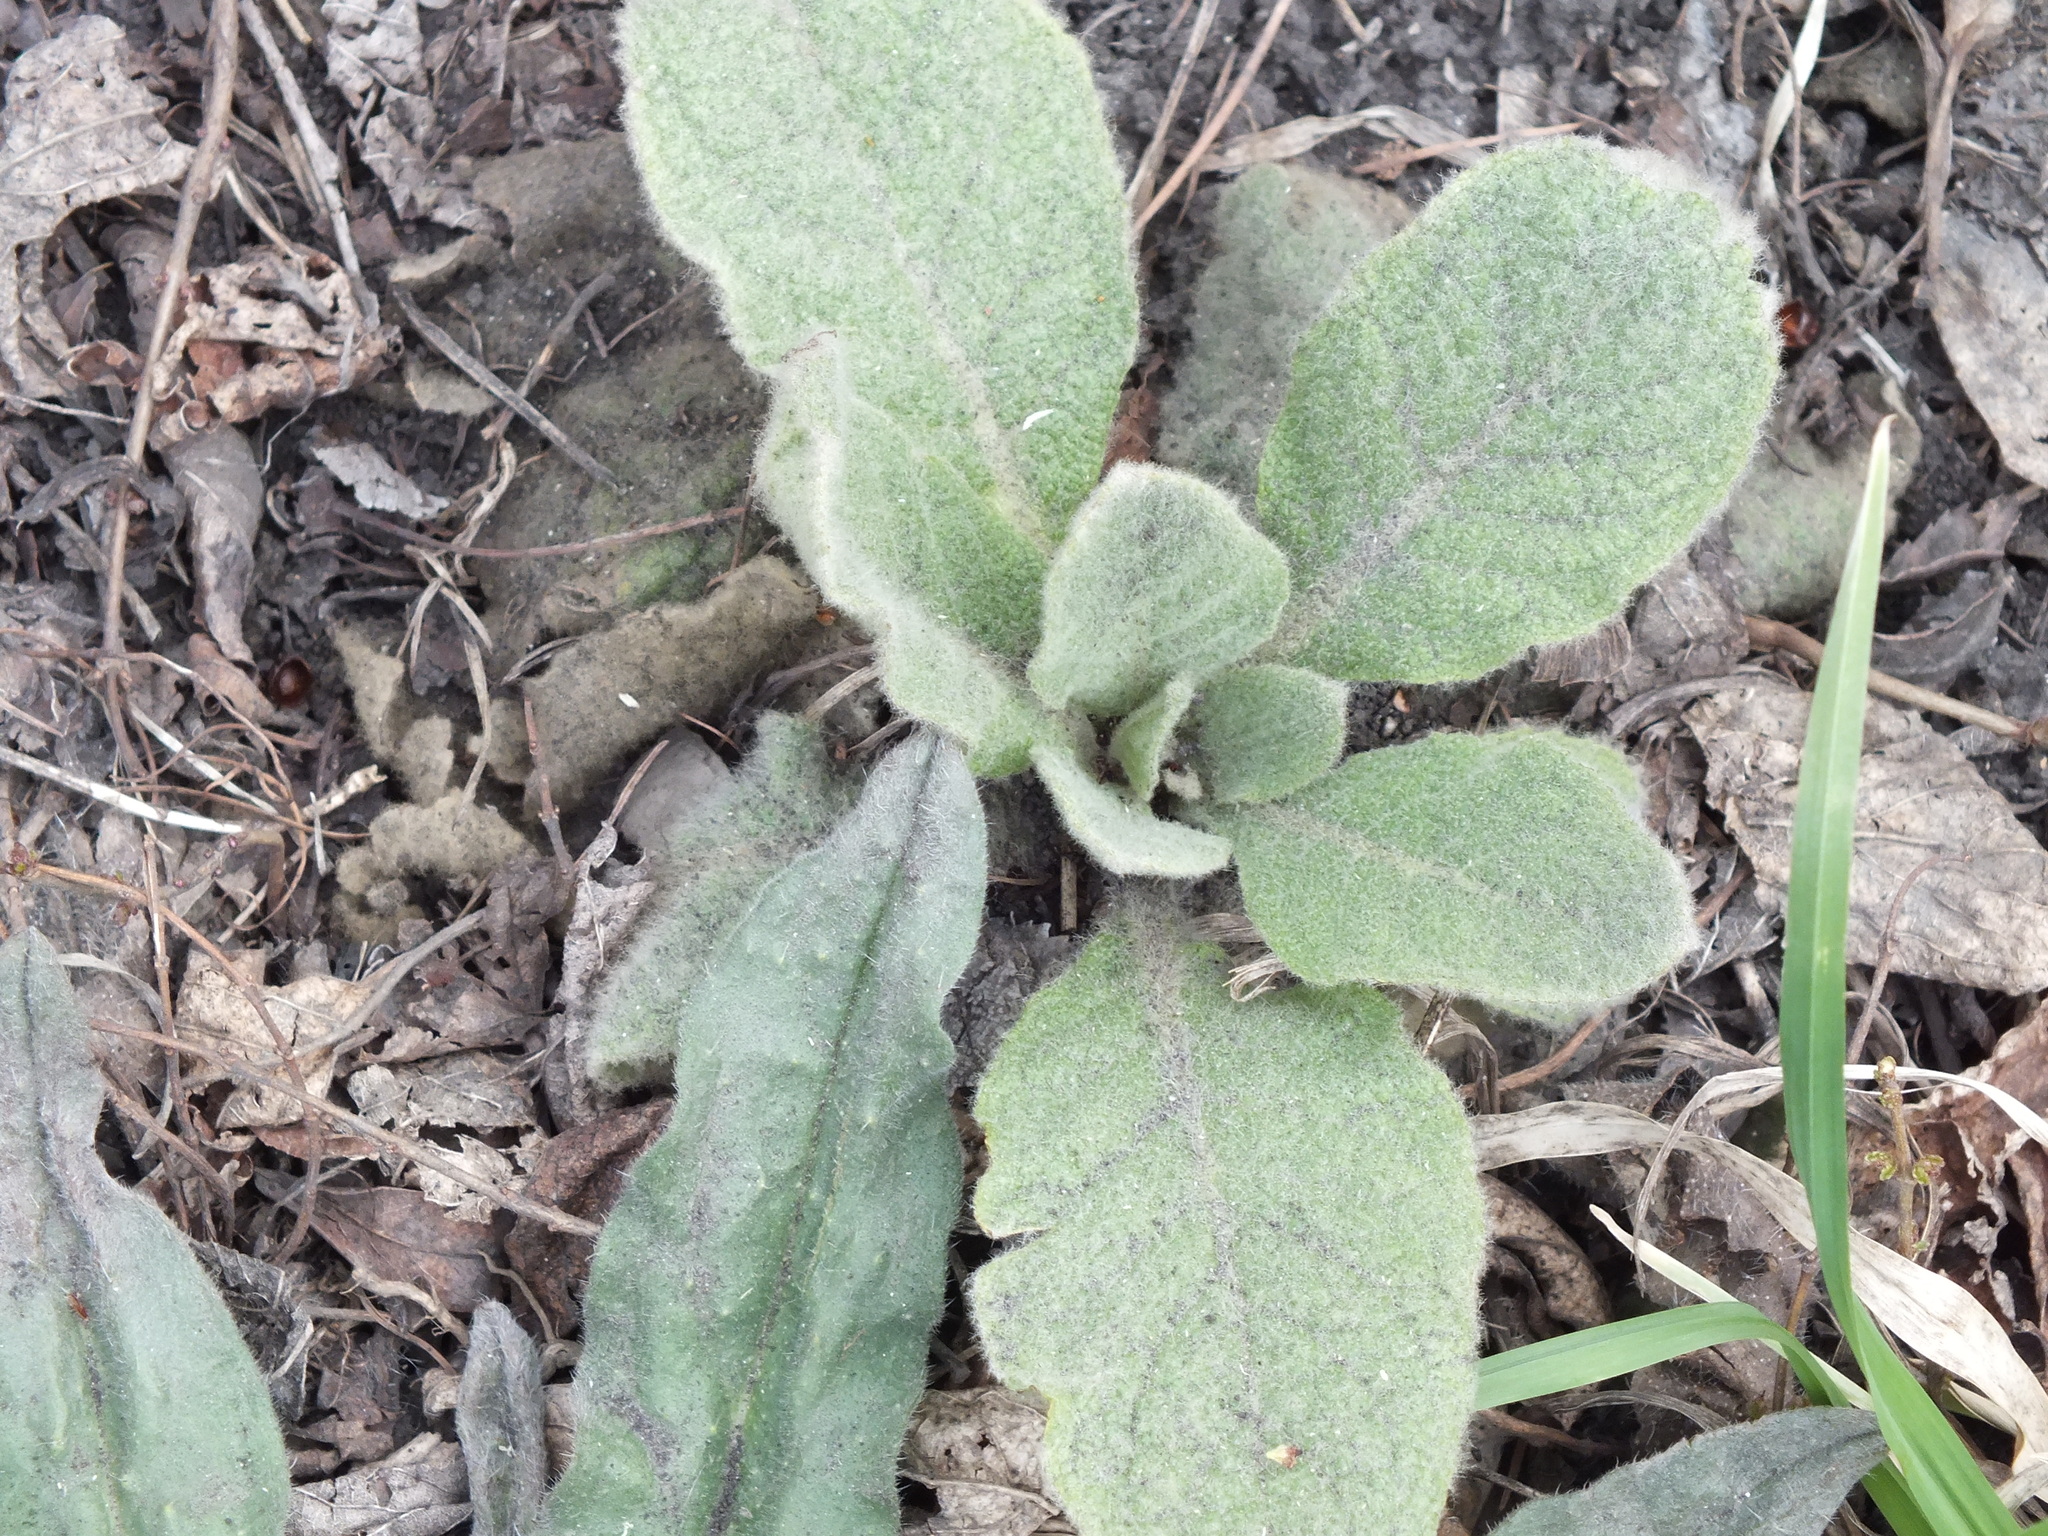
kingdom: Plantae
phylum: Tracheophyta
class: Magnoliopsida
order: Lamiales
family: Scrophulariaceae
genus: Verbascum
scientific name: Verbascum thapsus
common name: Common mullein
